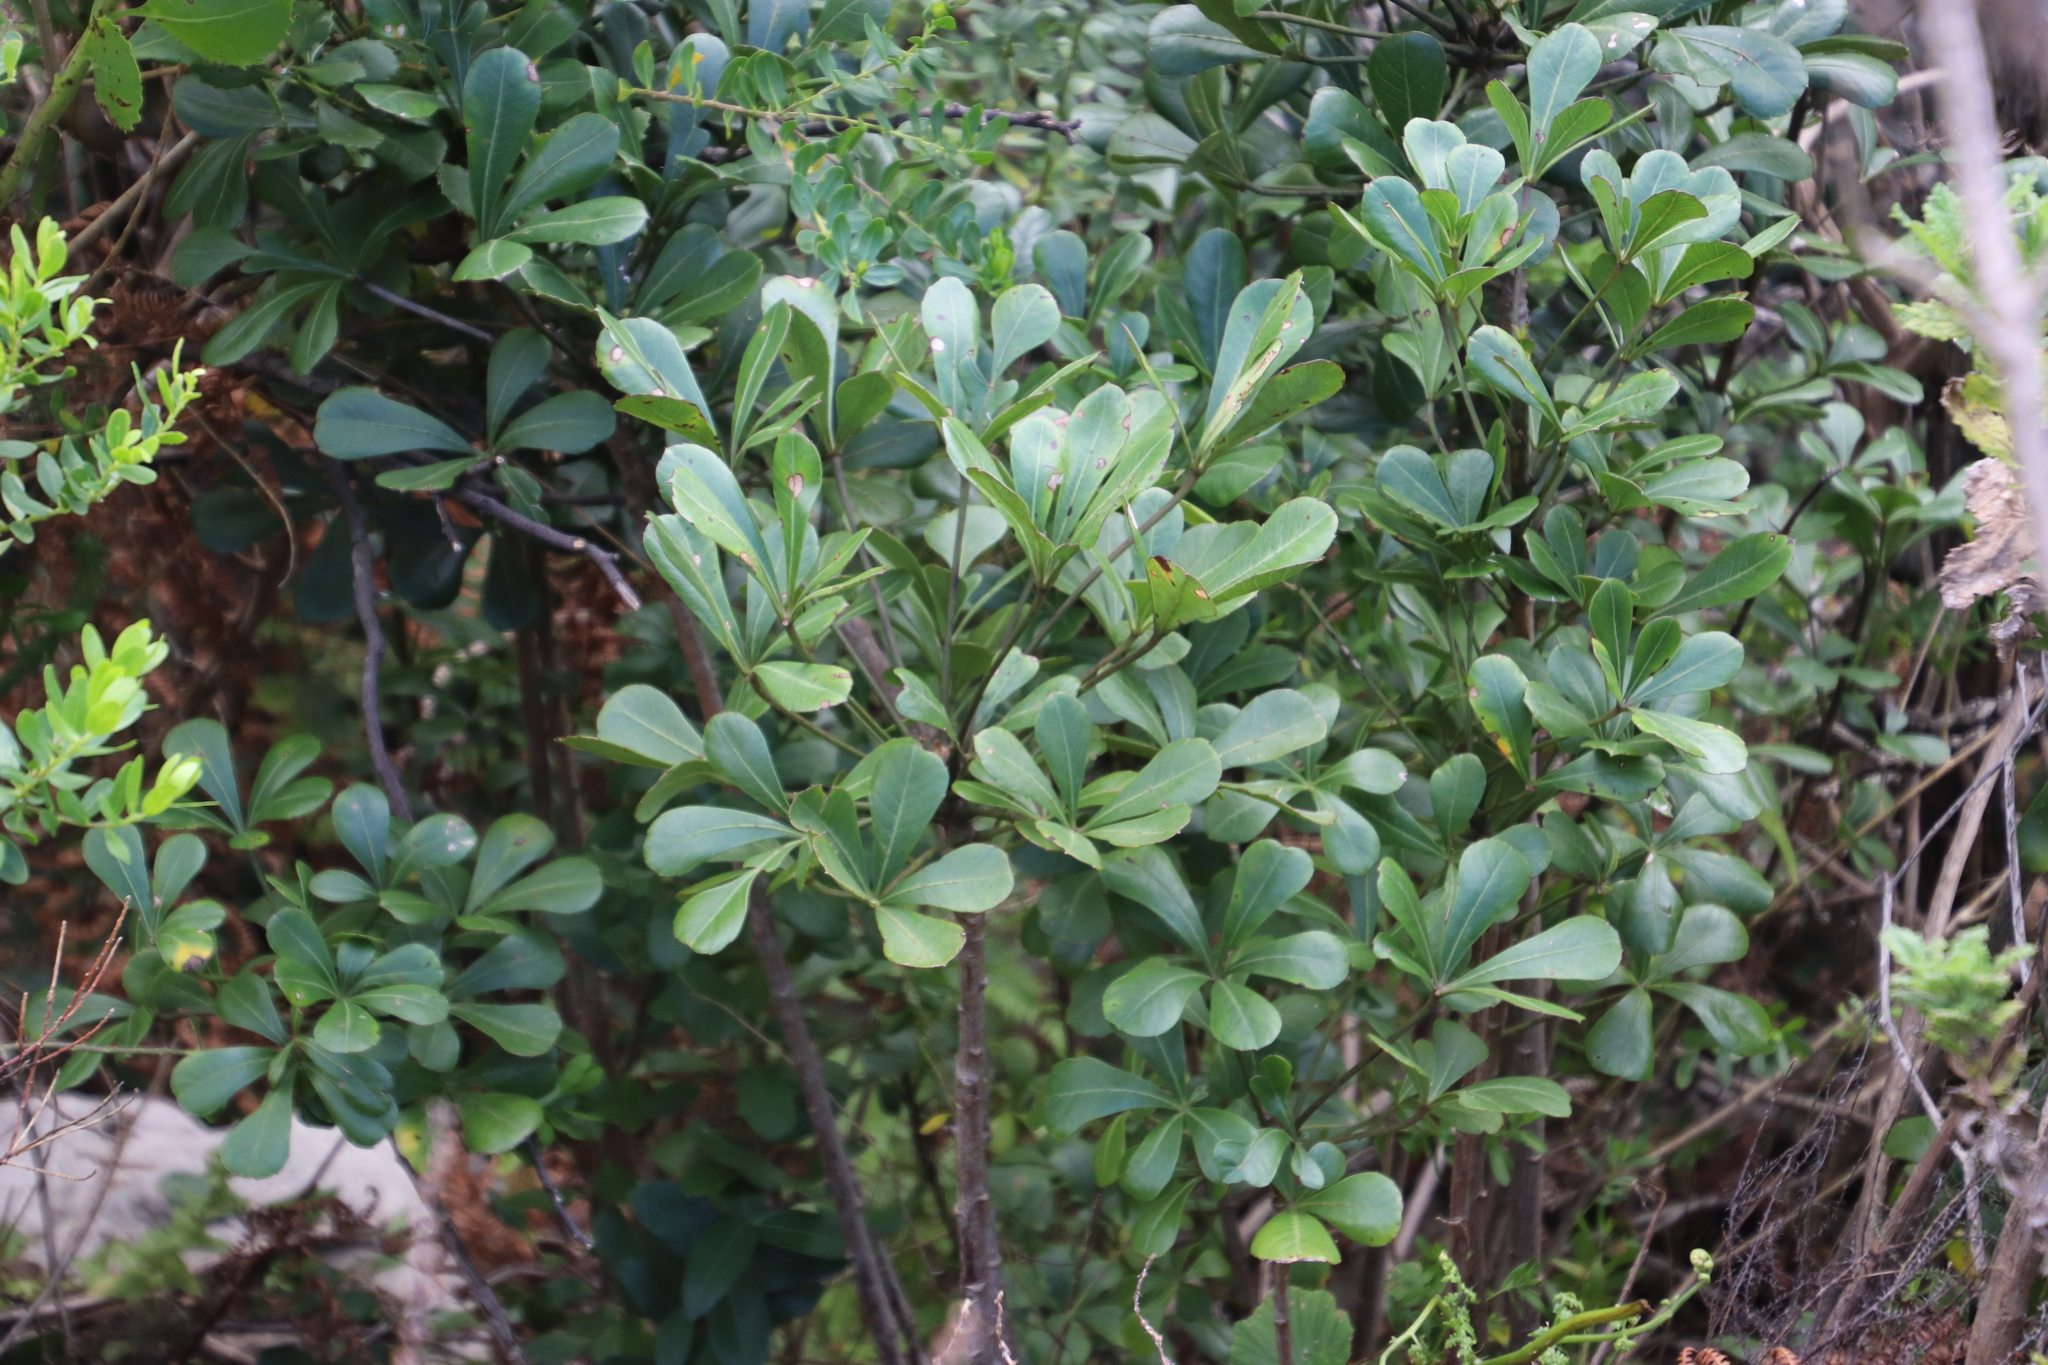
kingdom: Plantae
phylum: Tracheophyta
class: Magnoliopsida
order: Apiales
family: Araliaceae
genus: Cussonia
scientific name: Cussonia thyrsiflora
